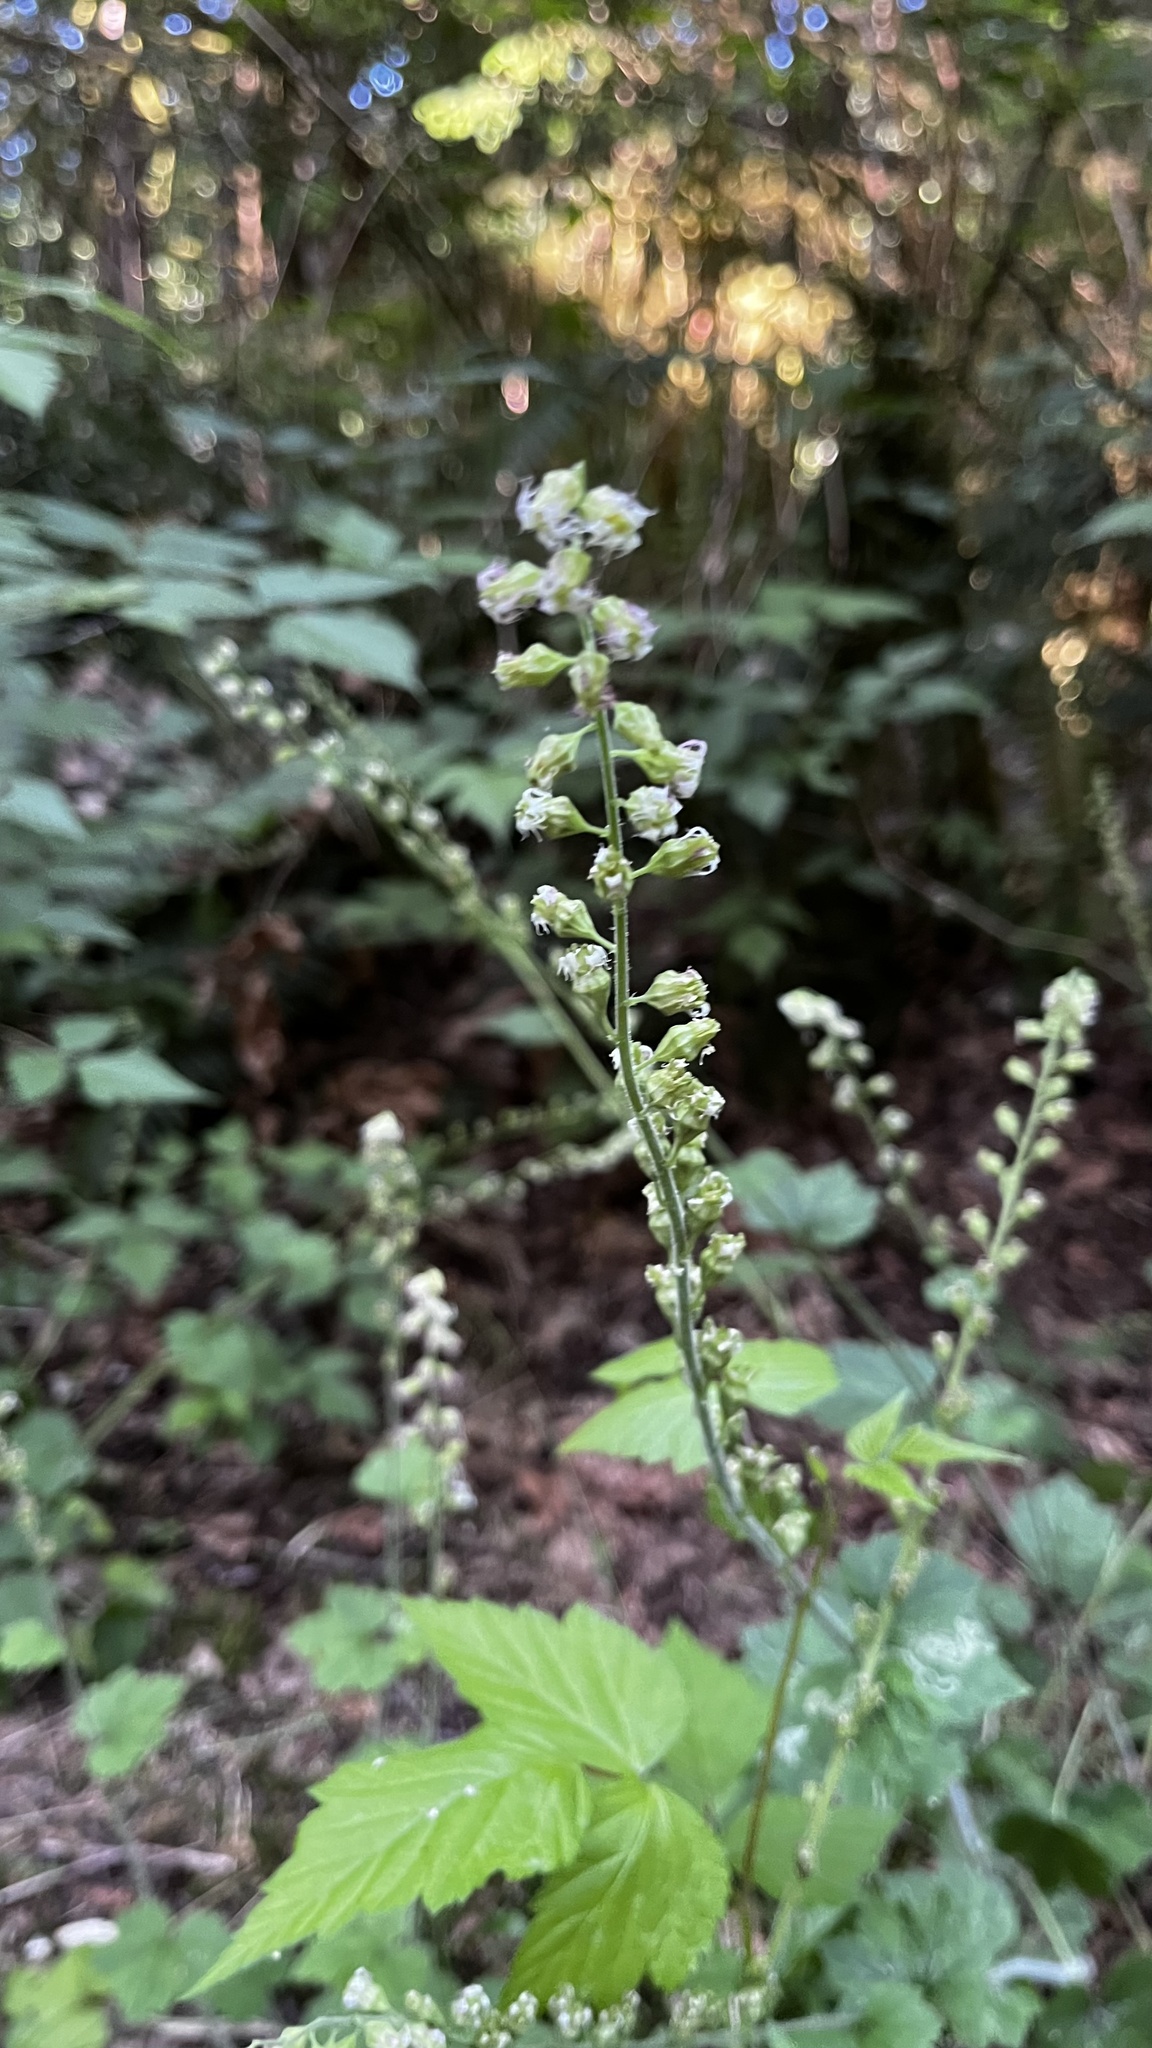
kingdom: Plantae
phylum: Tracheophyta
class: Magnoliopsida
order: Saxifragales
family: Saxifragaceae
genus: Tellima
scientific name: Tellima grandiflora
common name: Fringecups
